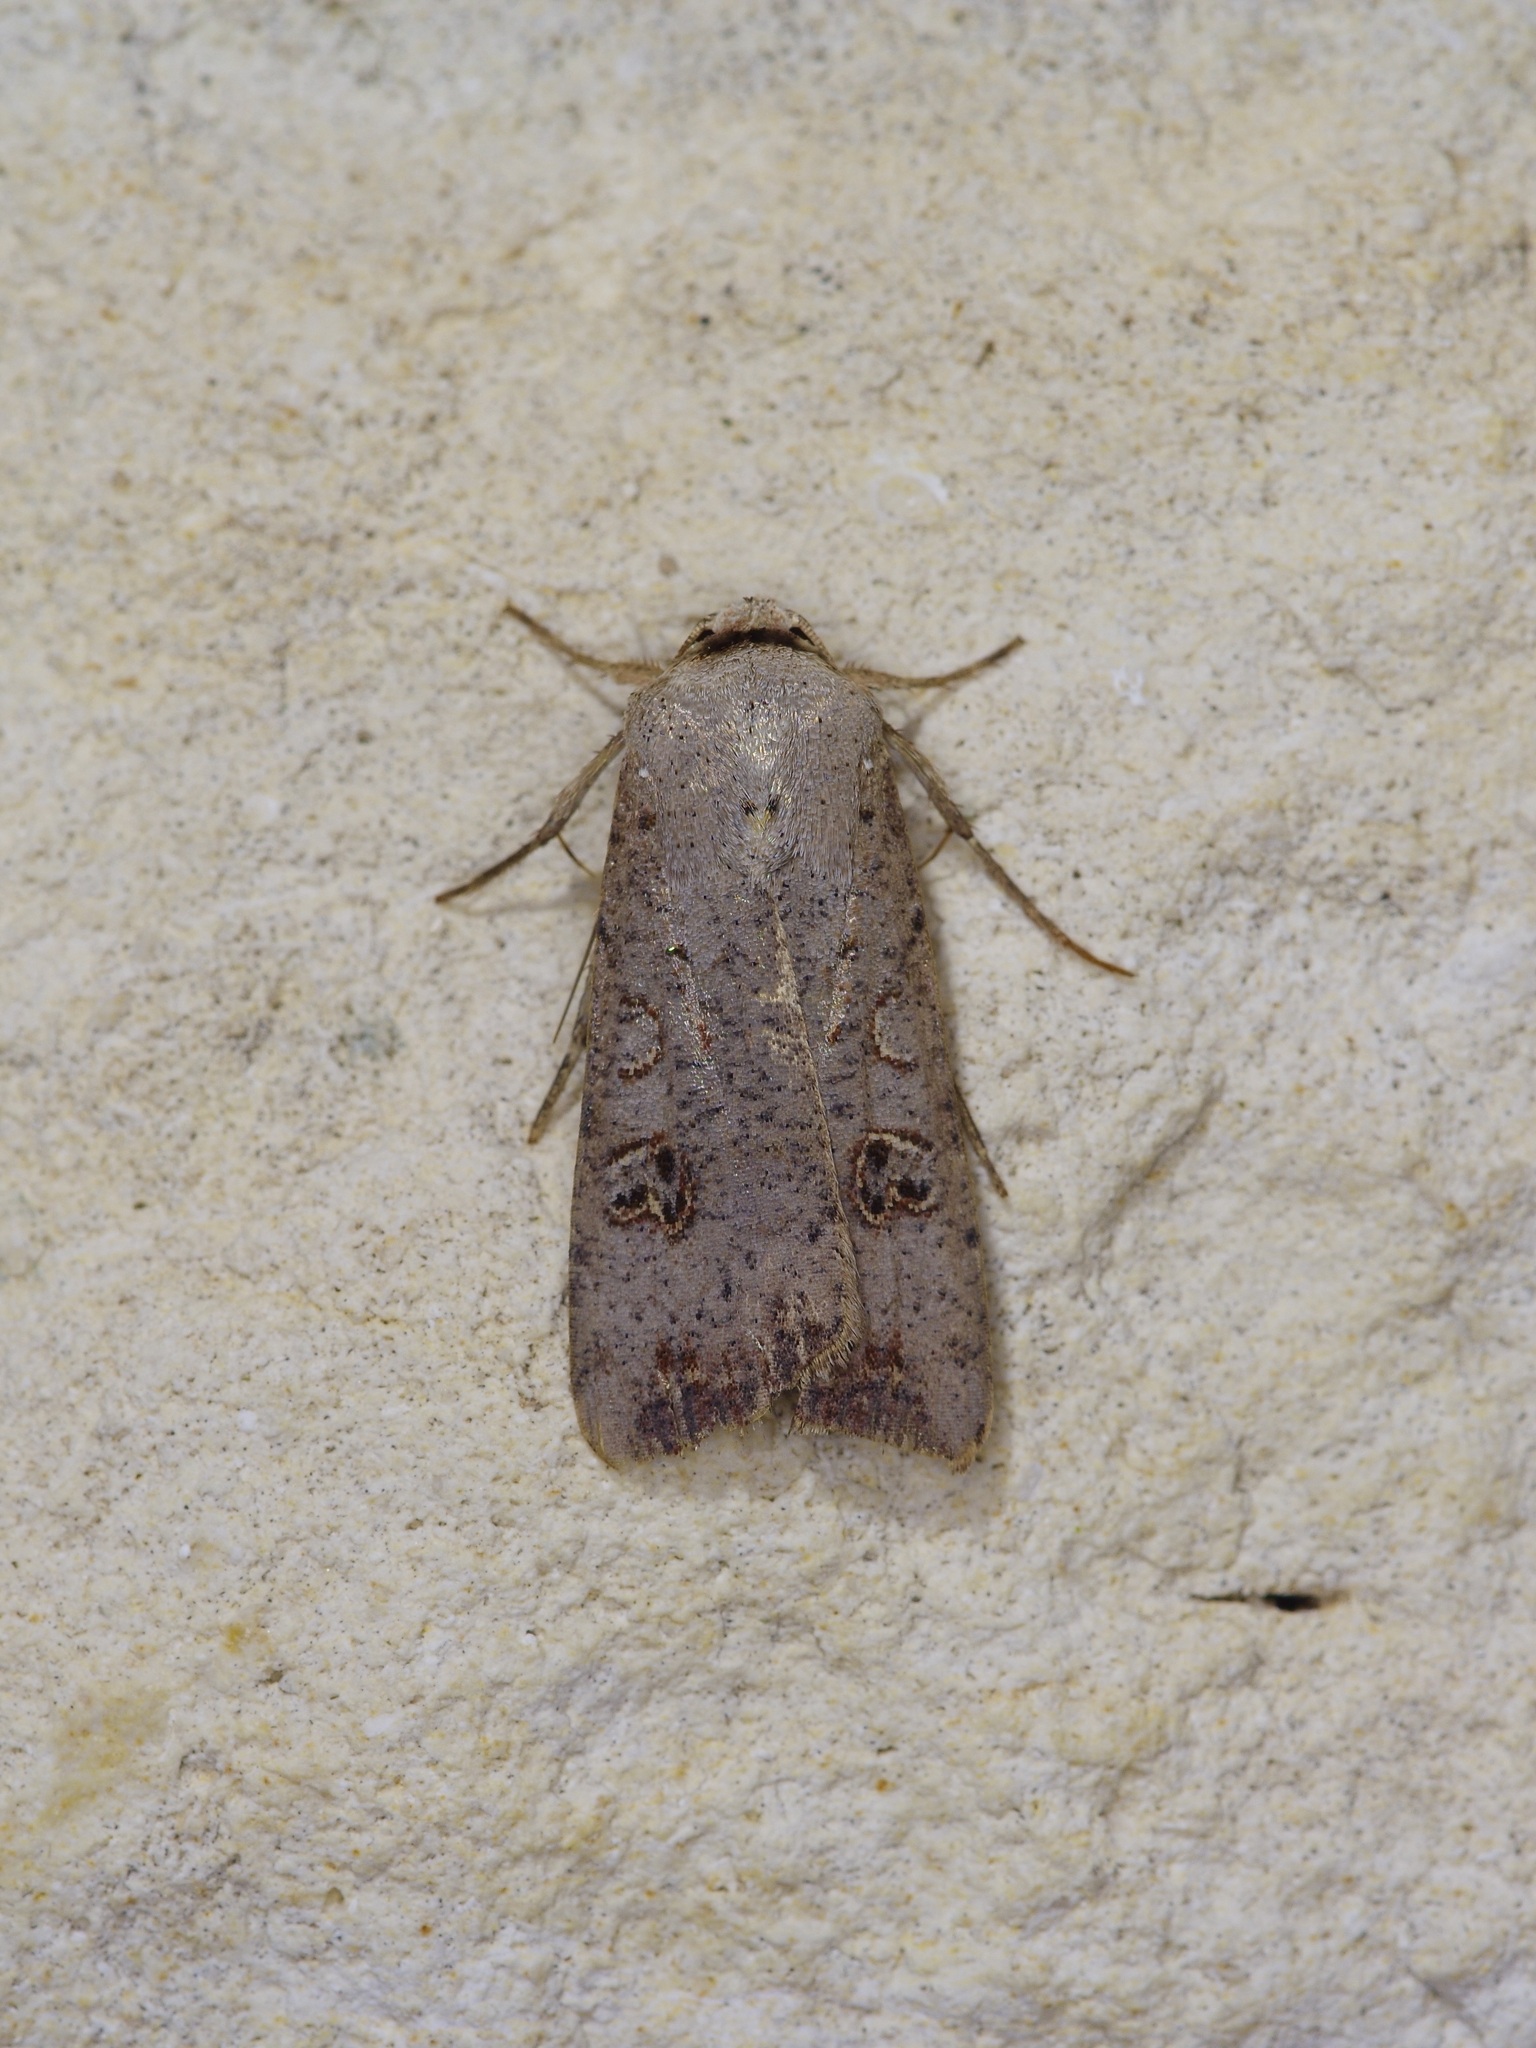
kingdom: Animalia
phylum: Arthropoda
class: Insecta
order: Lepidoptera
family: Noctuidae
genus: Anicla
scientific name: Anicla infecta
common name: Green cutworm
